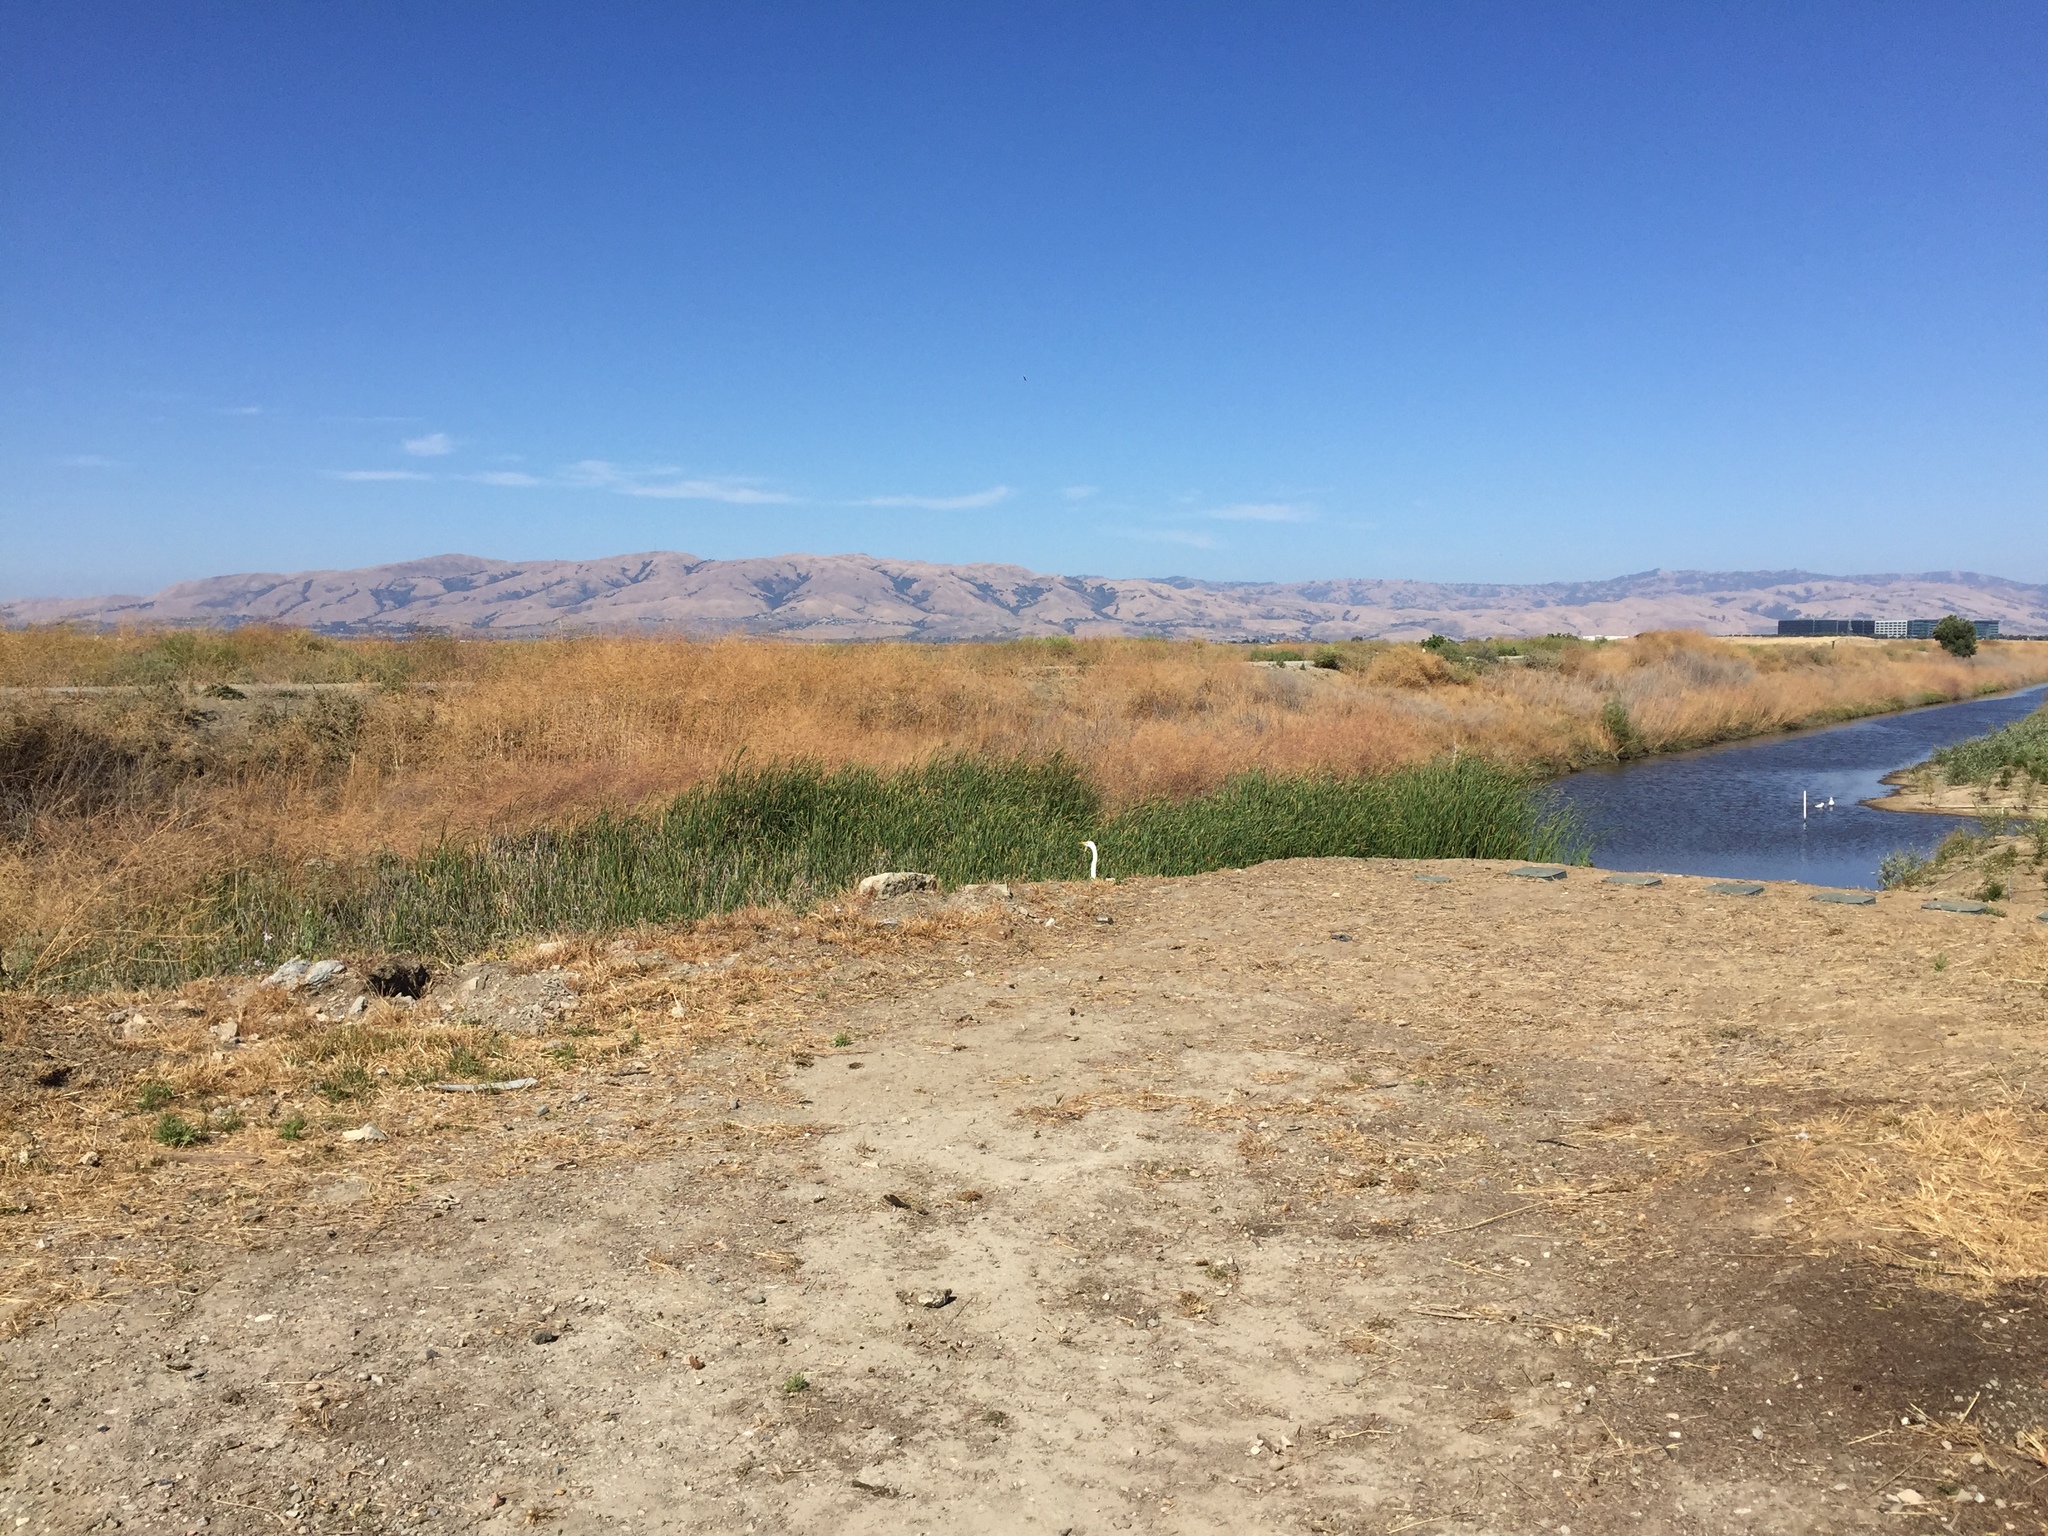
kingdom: Animalia
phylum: Chordata
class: Aves
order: Pelecaniformes
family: Ardeidae
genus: Ardea
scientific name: Ardea alba
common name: Great egret
